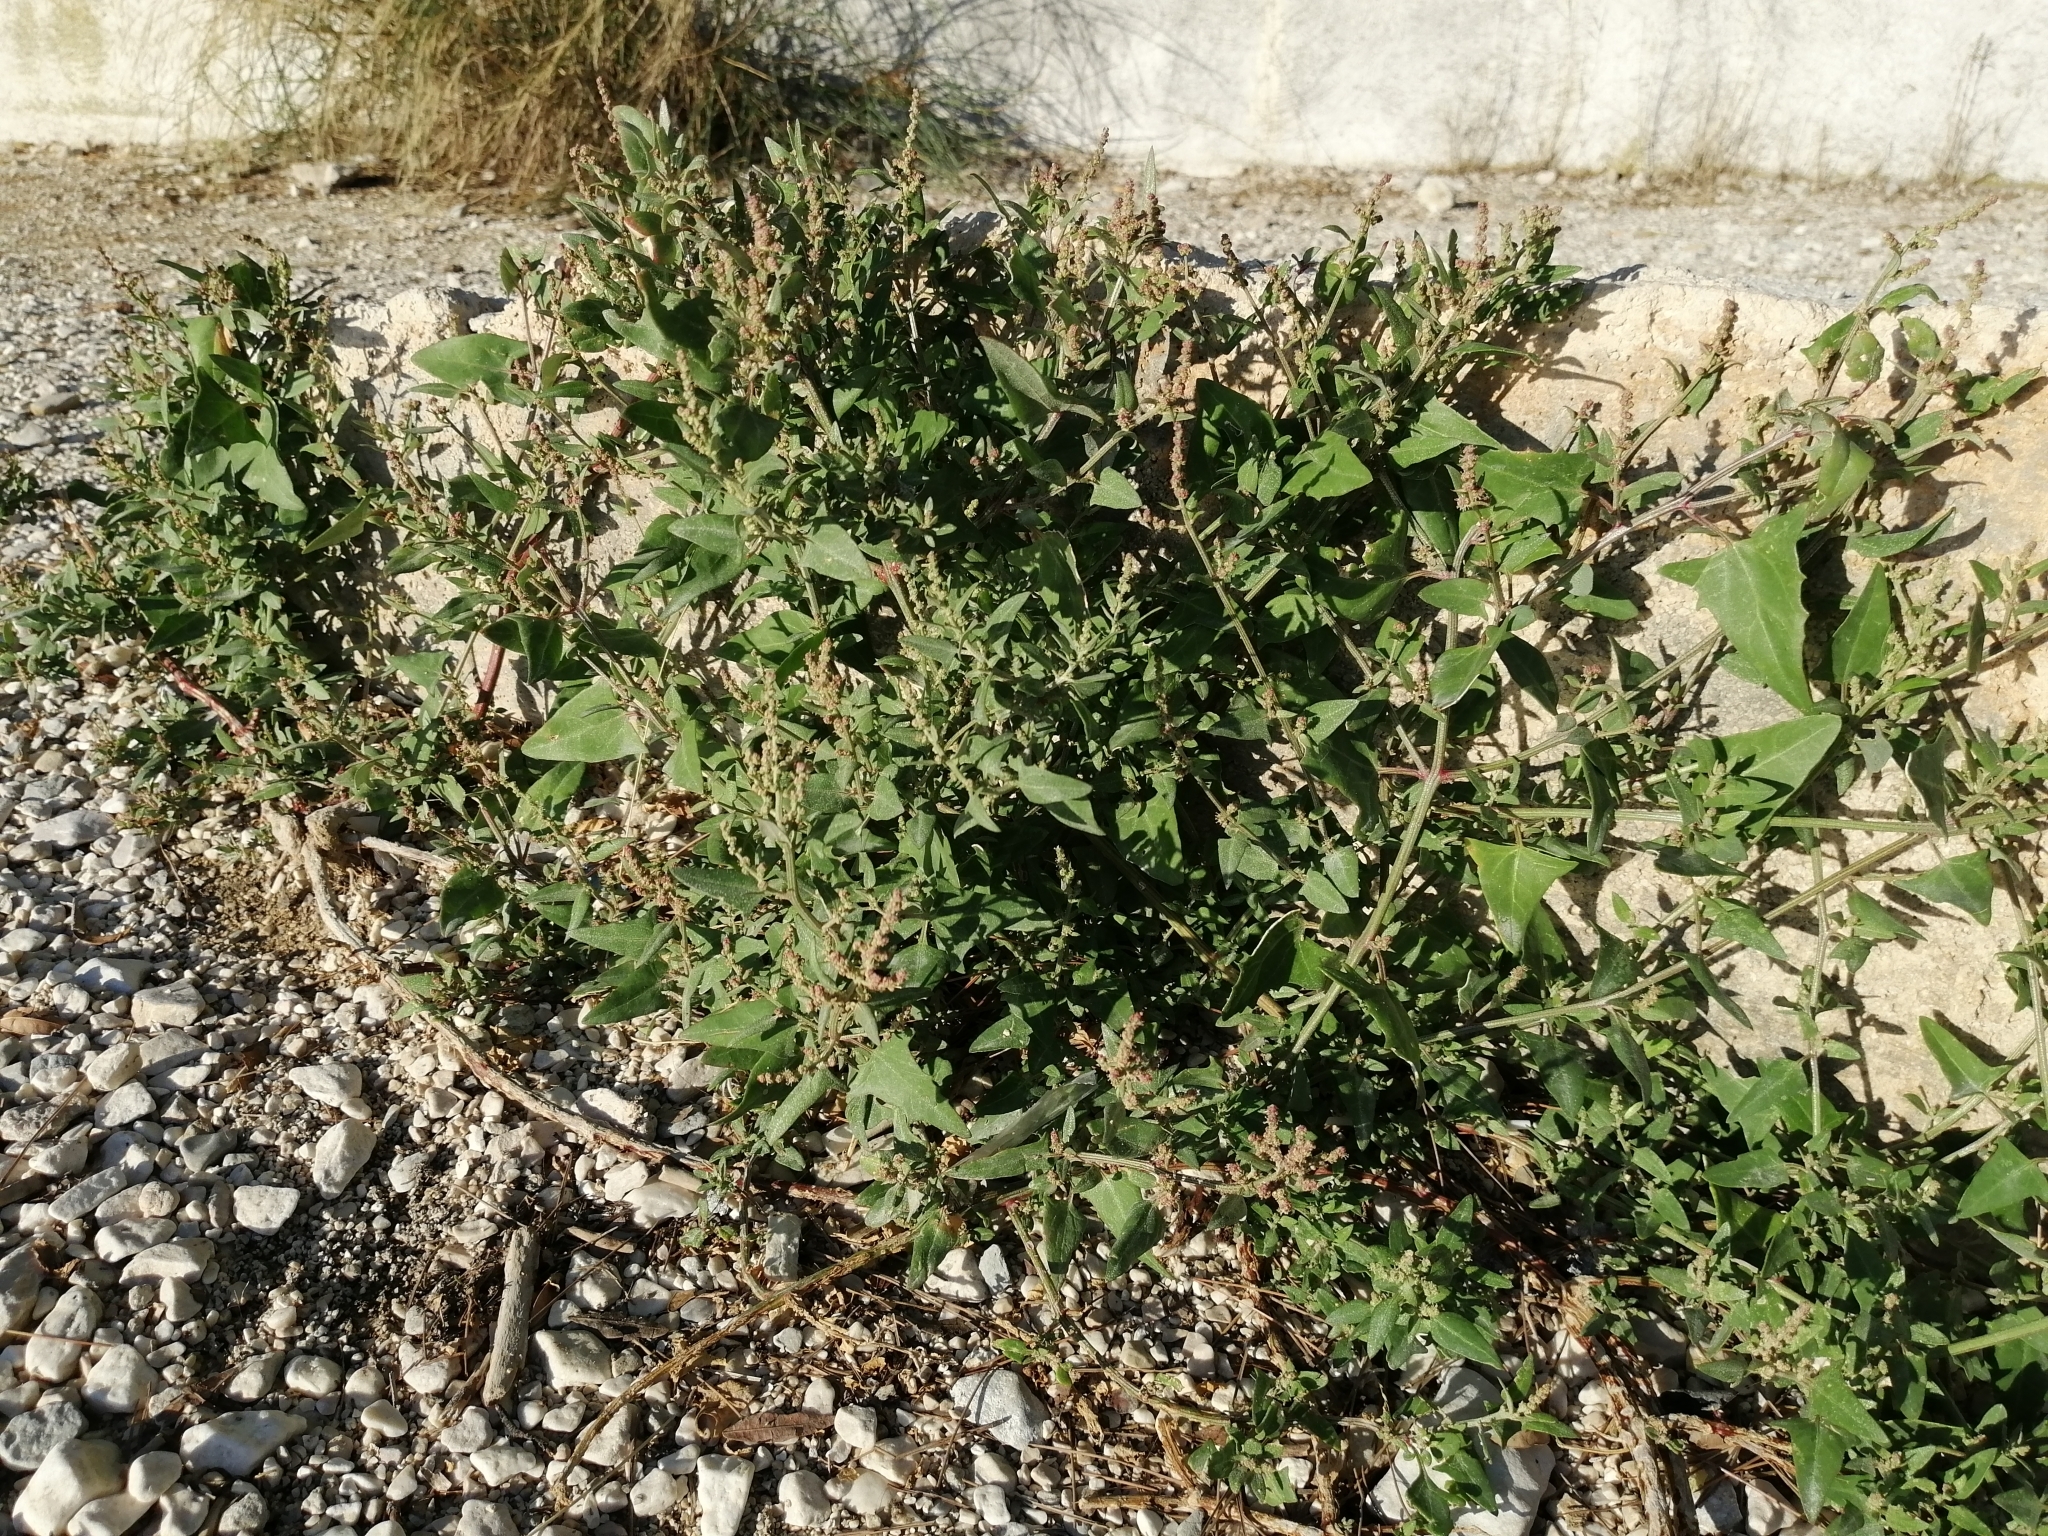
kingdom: Plantae
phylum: Tracheophyta
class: Magnoliopsida
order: Caryophyllales
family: Amaranthaceae
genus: Atriplex
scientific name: Atriplex prostrata
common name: Spear-leaved orache
